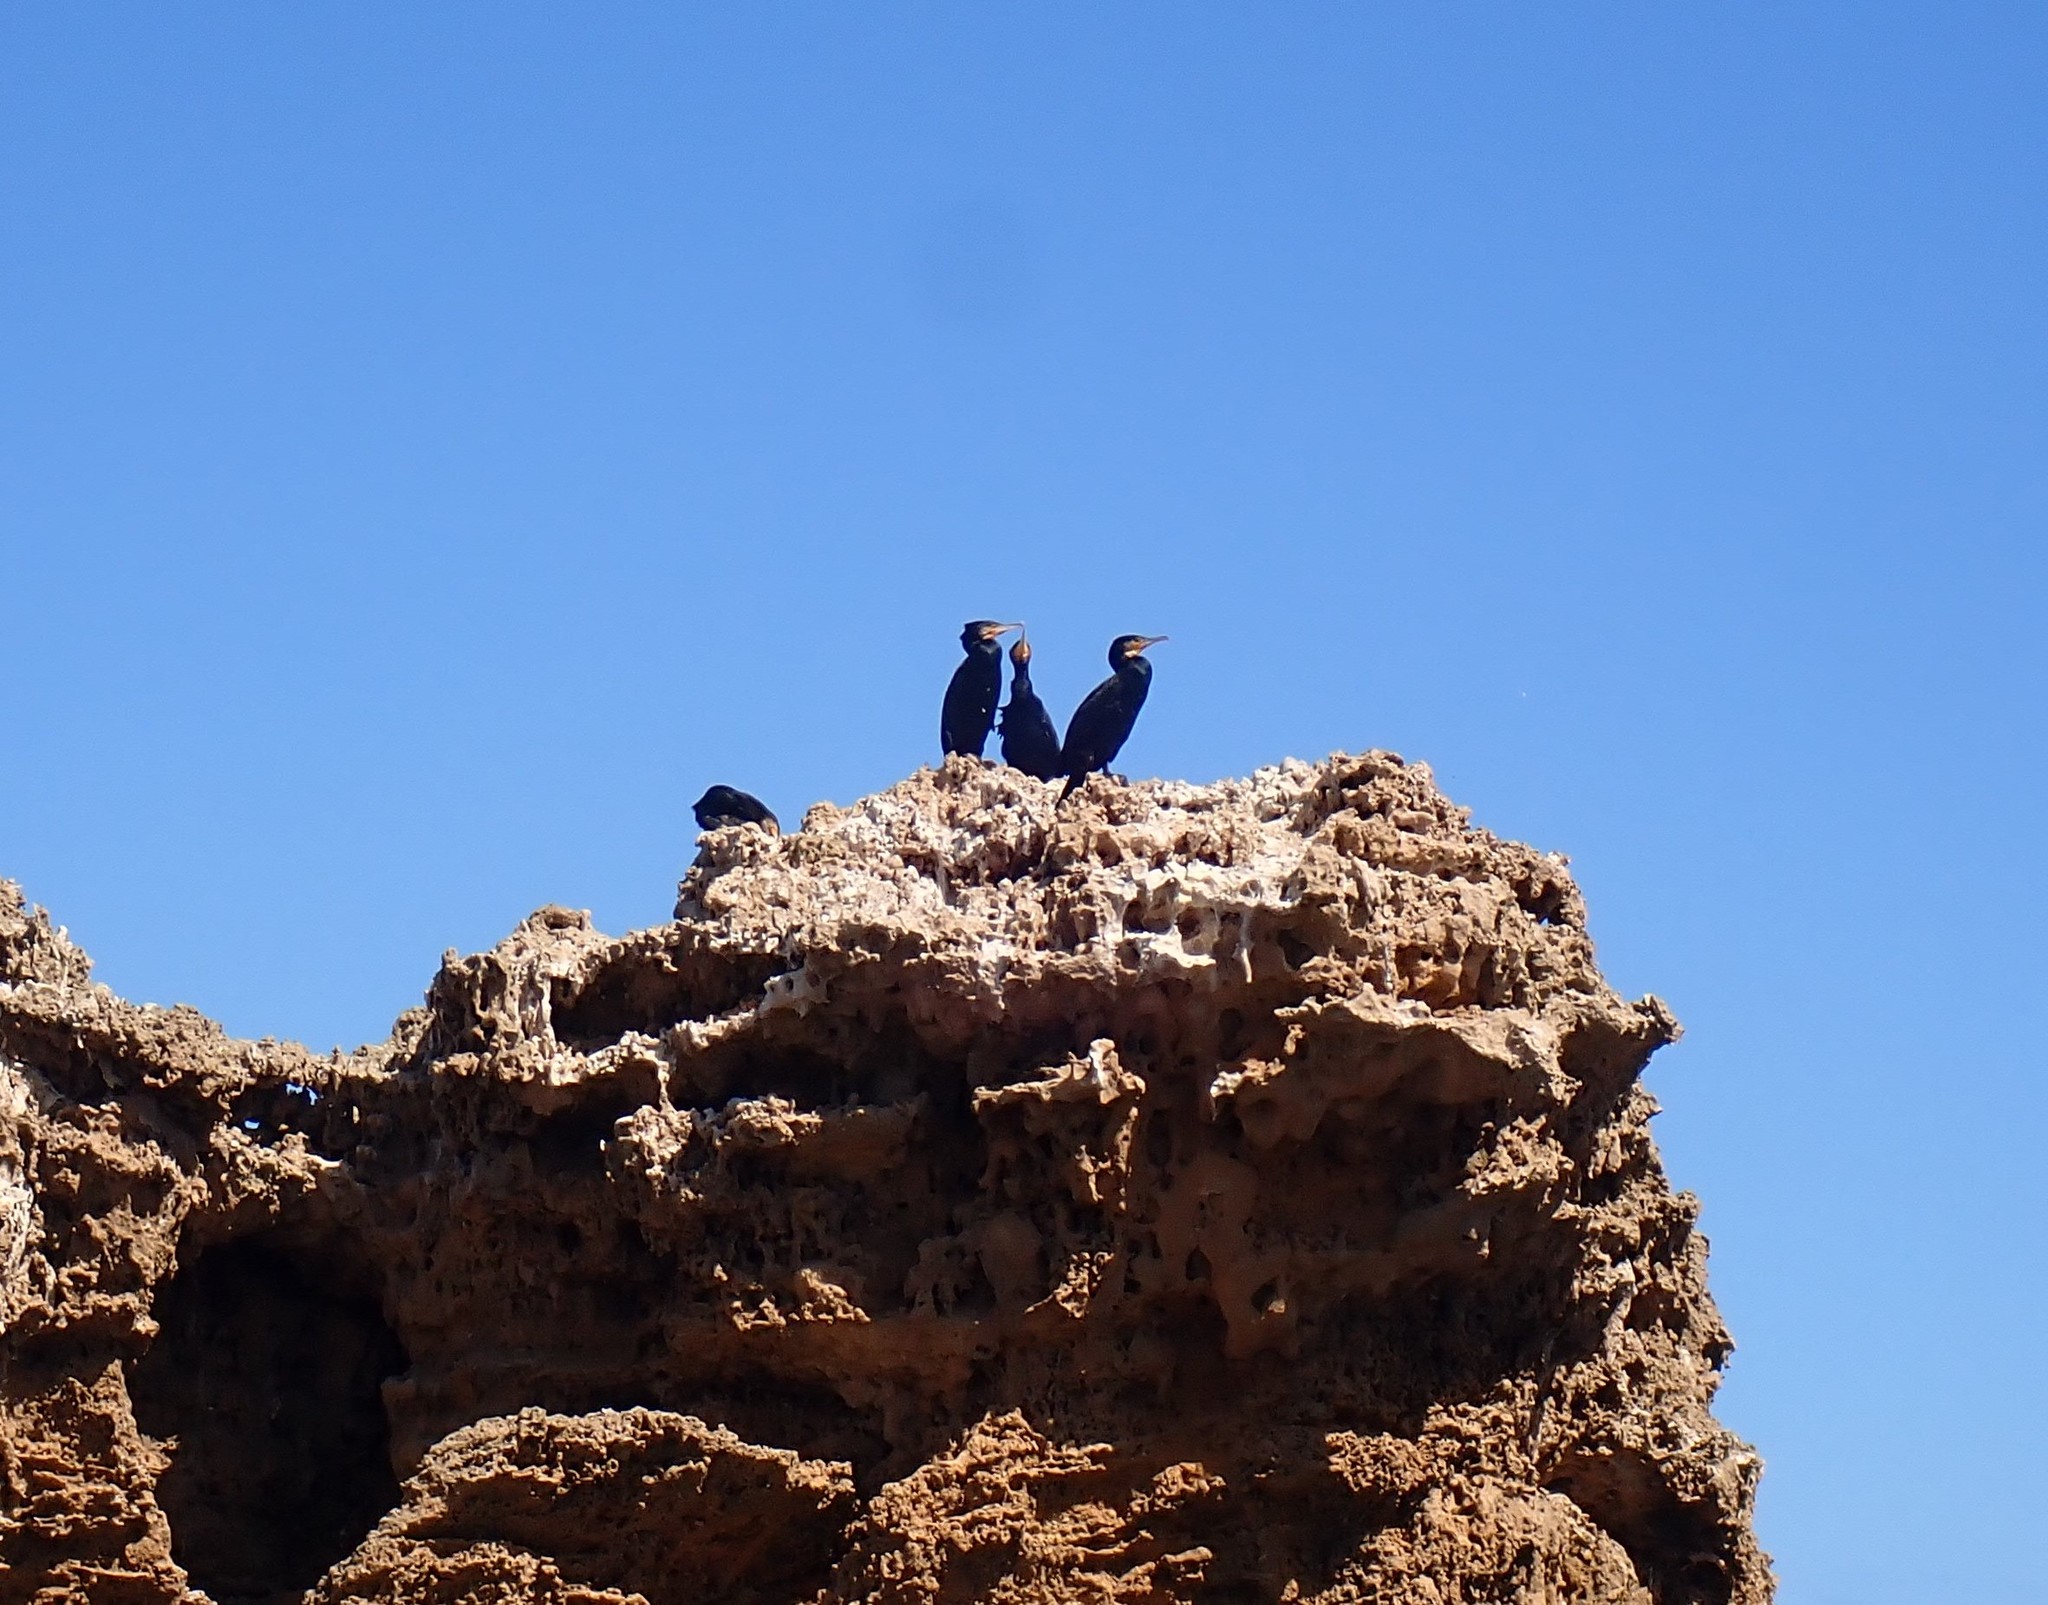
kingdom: Animalia
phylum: Chordata
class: Aves
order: Suliformes
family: Phalacrocoracidae
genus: Phalacrocorax
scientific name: Phalacrocorax carbo
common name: Great cormorant
